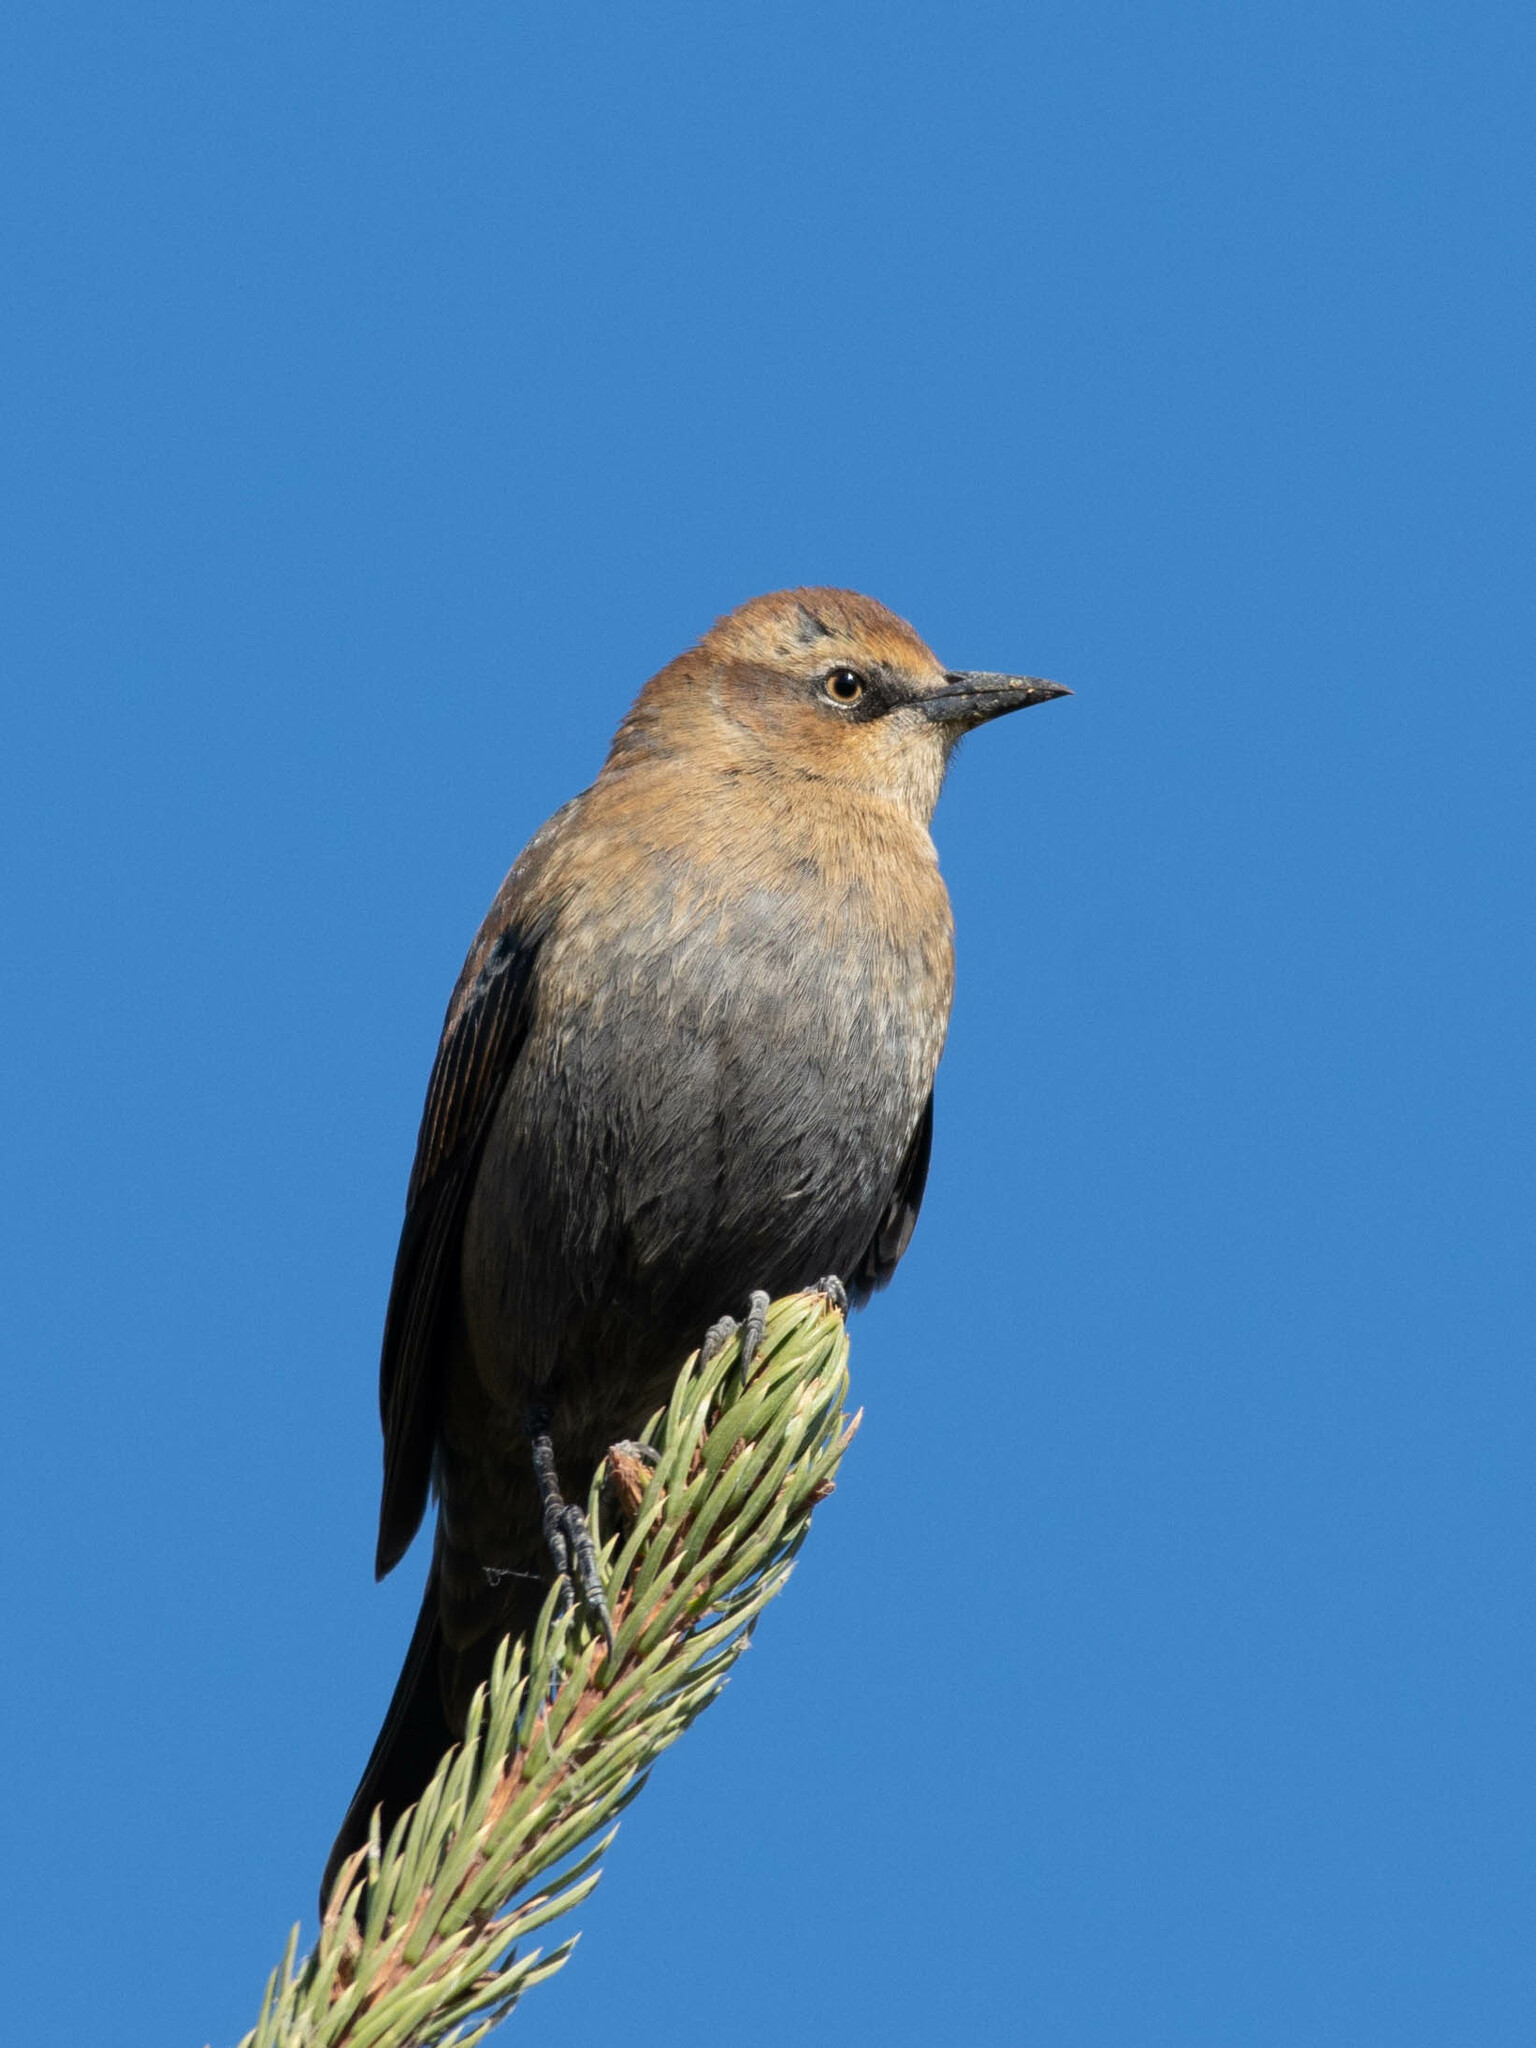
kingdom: Animalia
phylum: Chordata
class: Aves
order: Passeriformes
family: Icteridae
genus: Euphagus
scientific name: Euphagus carolinus
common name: Rusty blackbird
